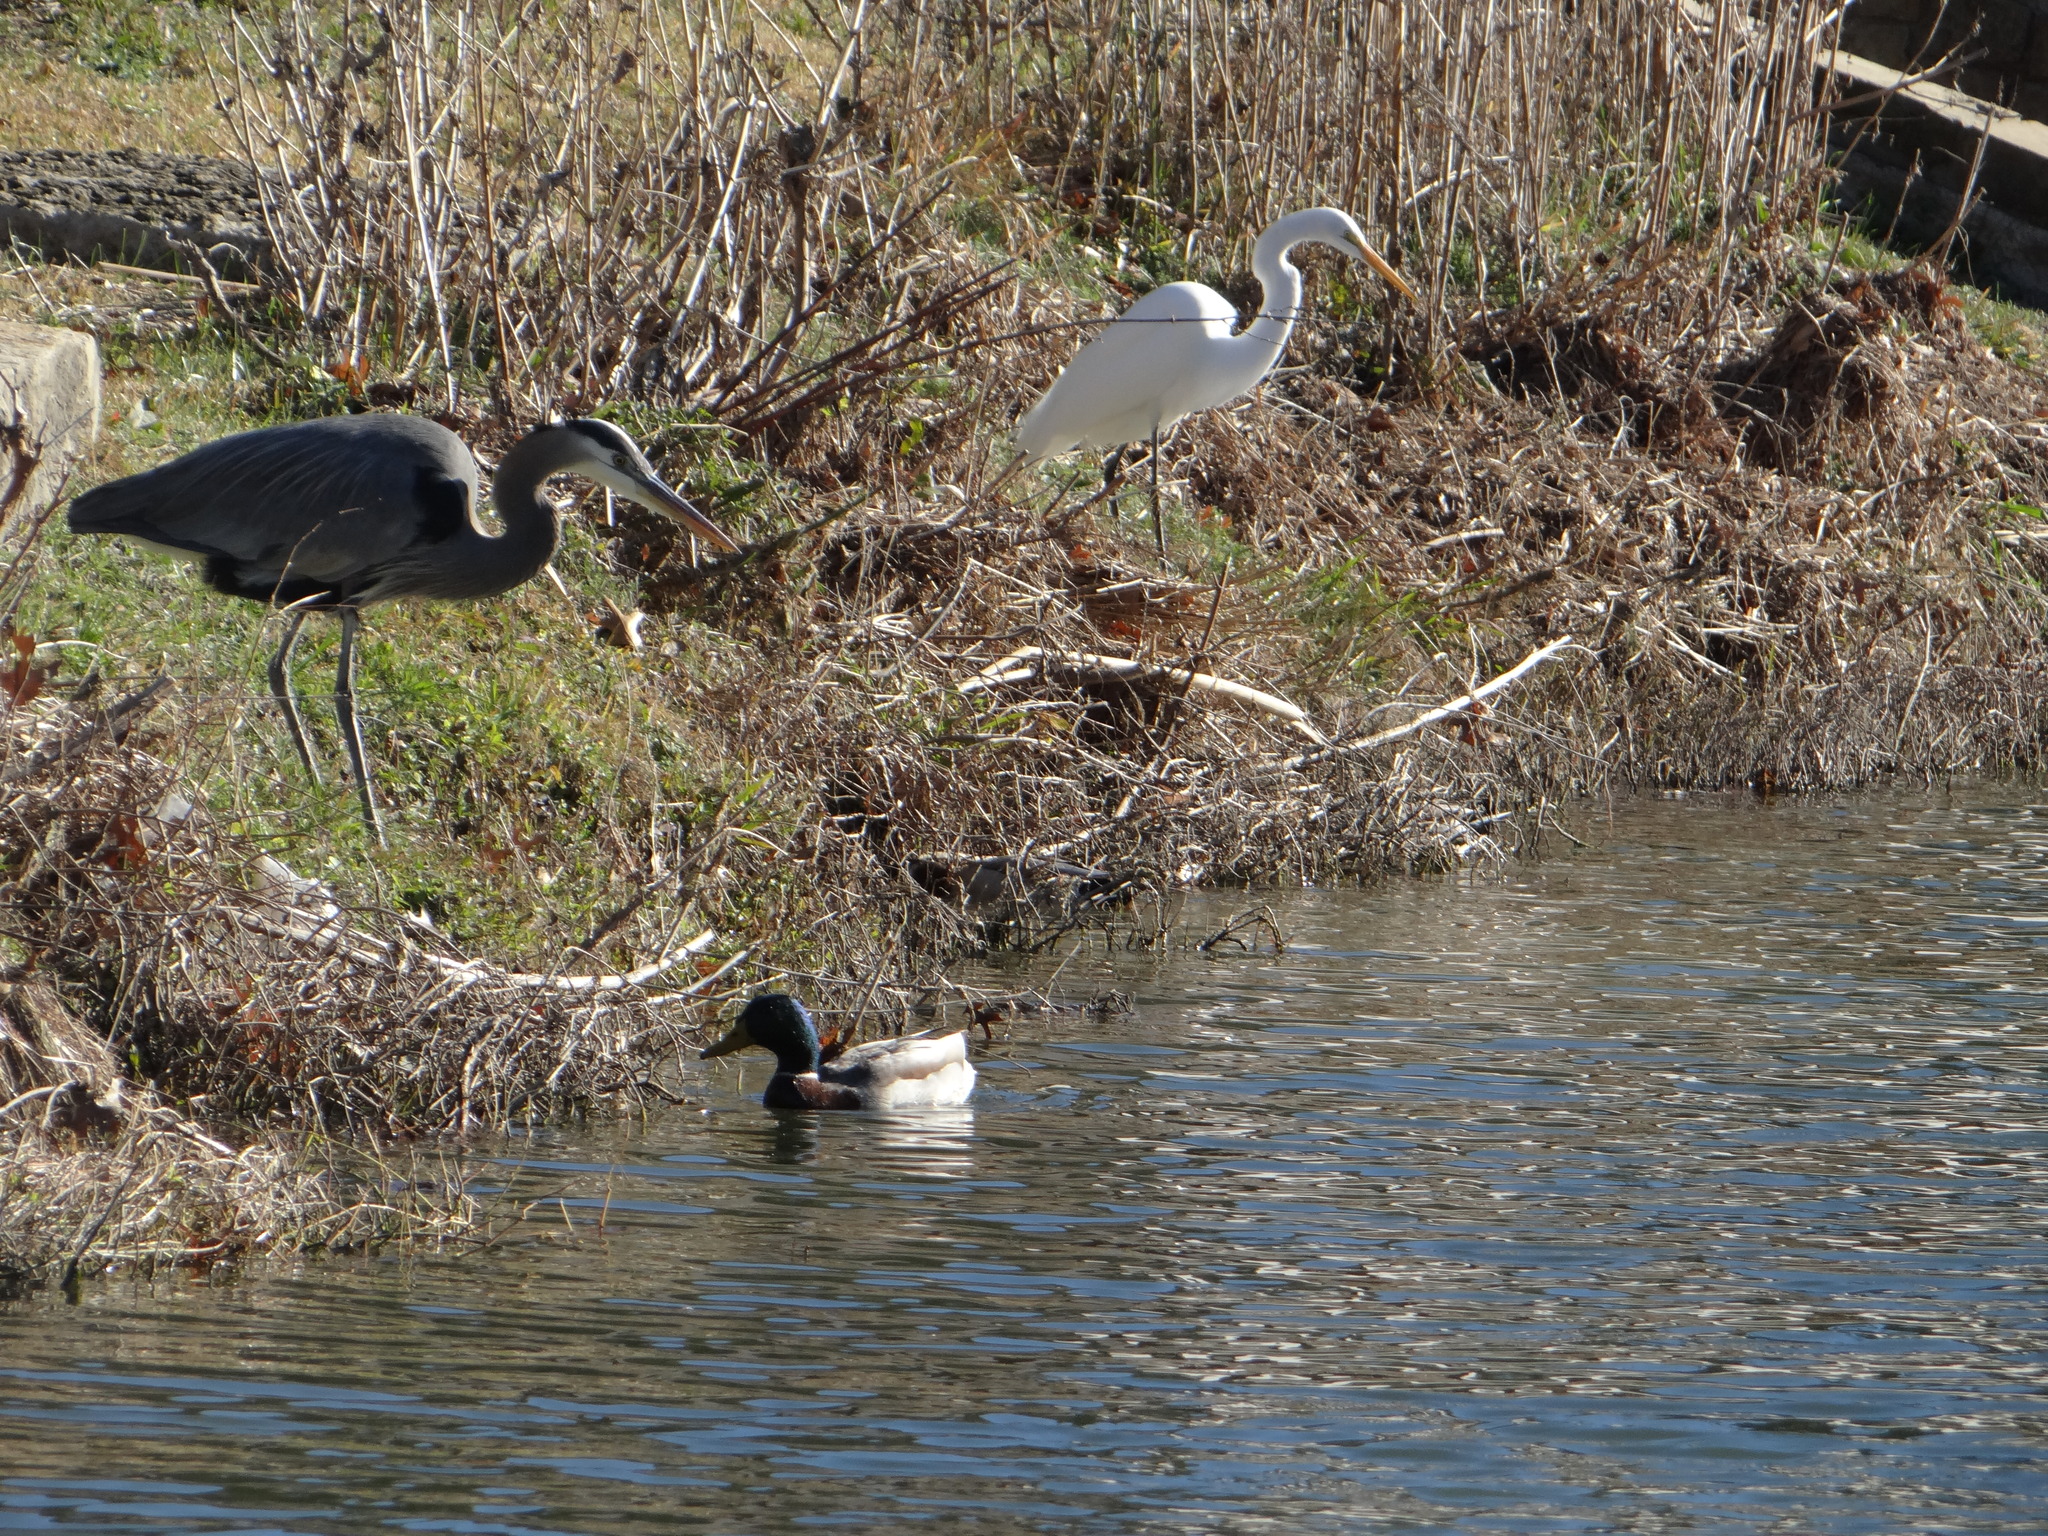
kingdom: Animalia
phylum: Chordata
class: Aves
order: Anseriformes
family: Anatidae
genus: Anas
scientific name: Anas platyrhynchos
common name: Mallard
